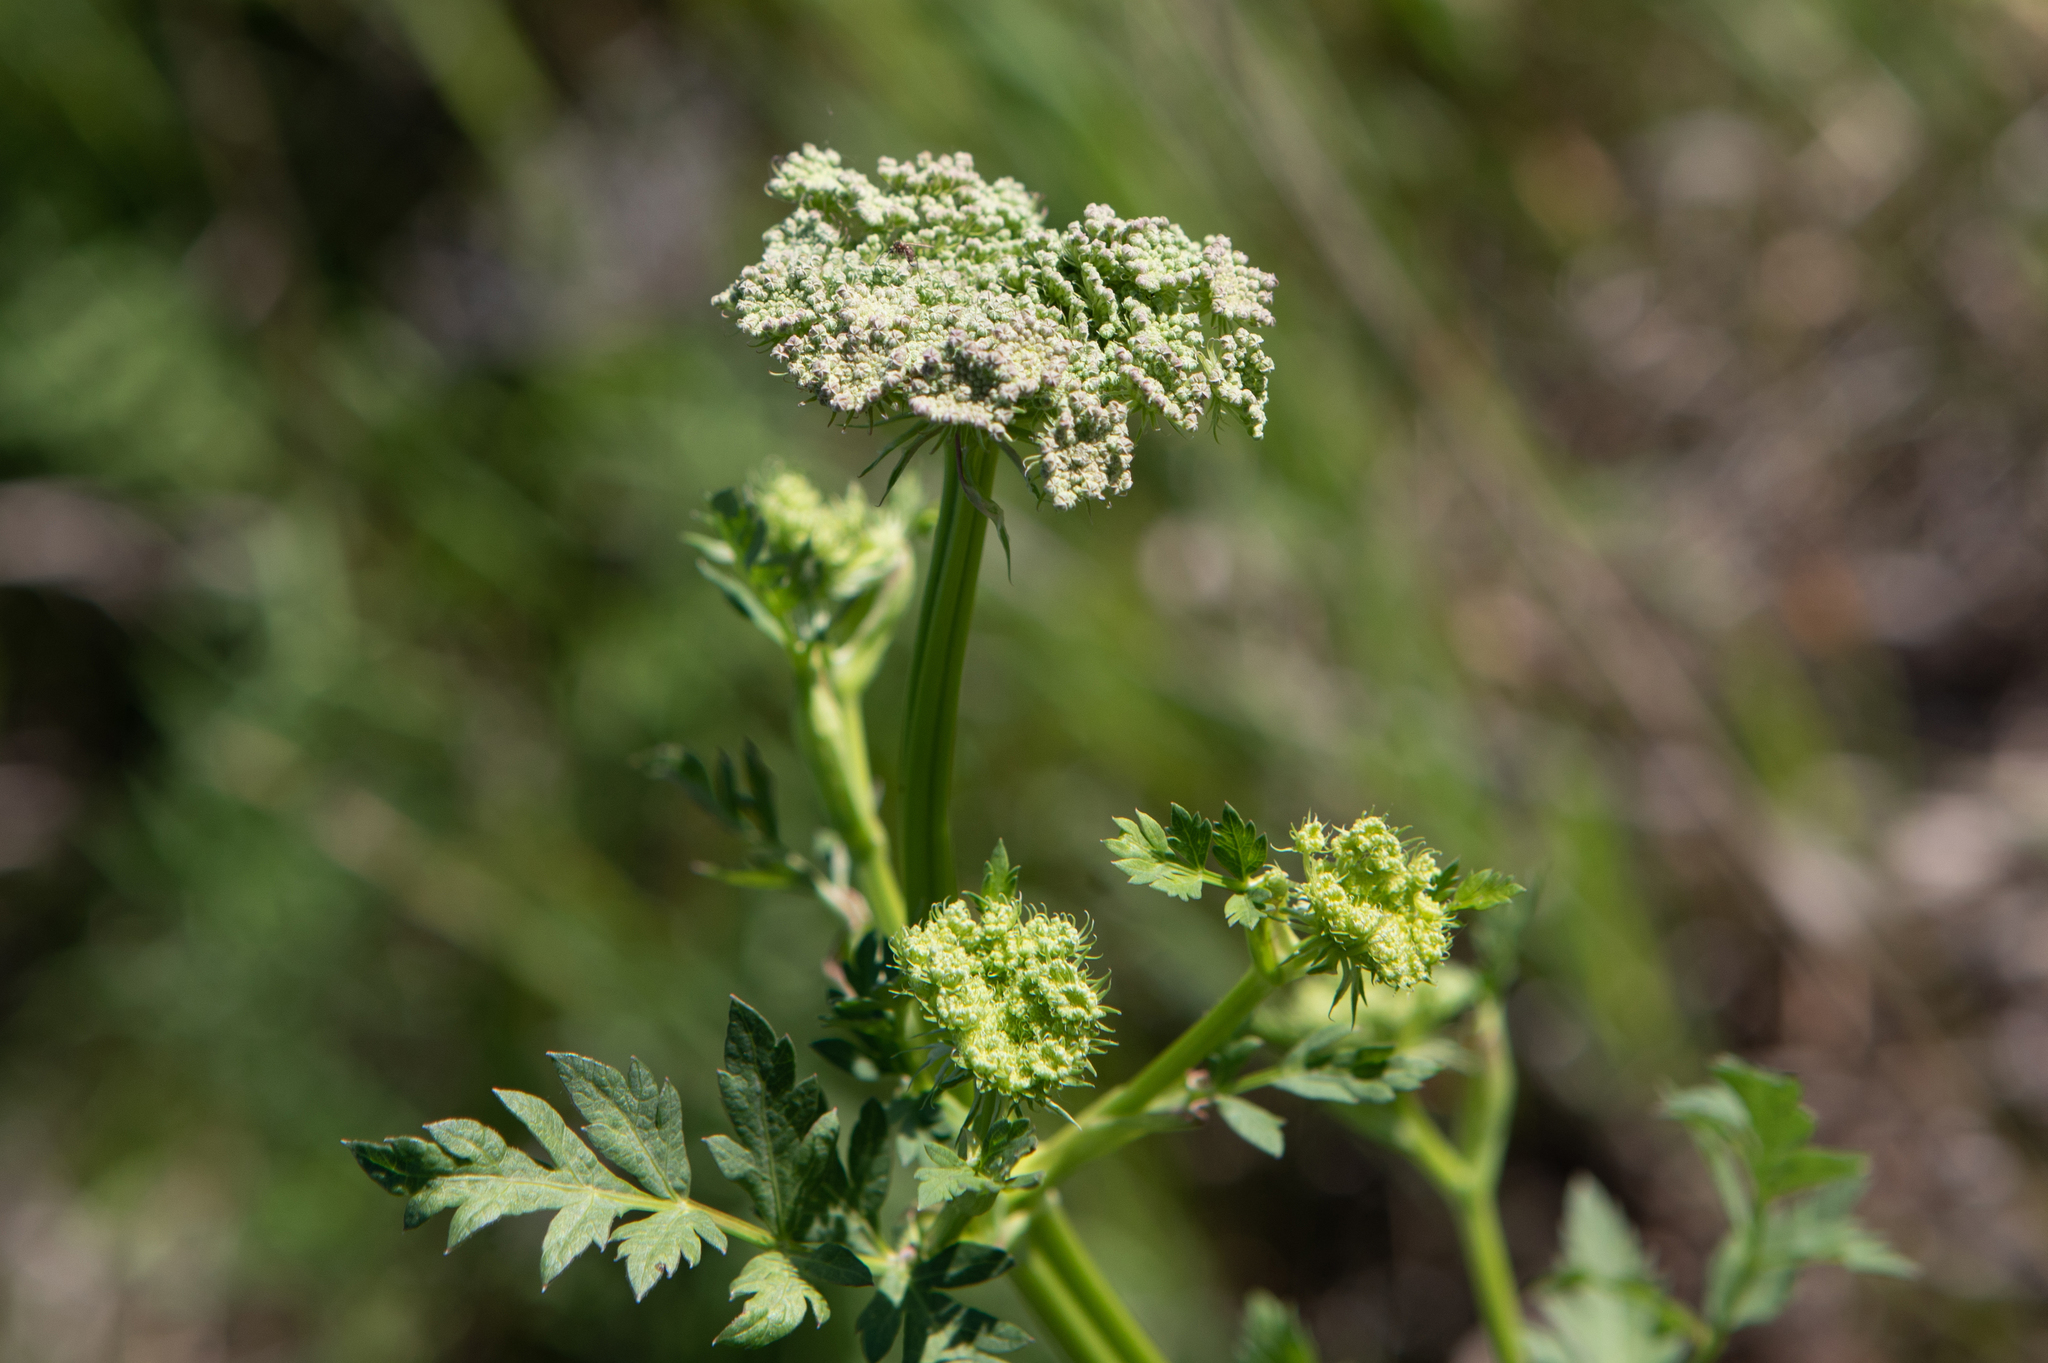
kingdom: Plantae
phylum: Tracheophyta
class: Magnoliopsida
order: Apiales
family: Apiaceae
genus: Seseli
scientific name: Seseli libanotis
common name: Mooncarrot
